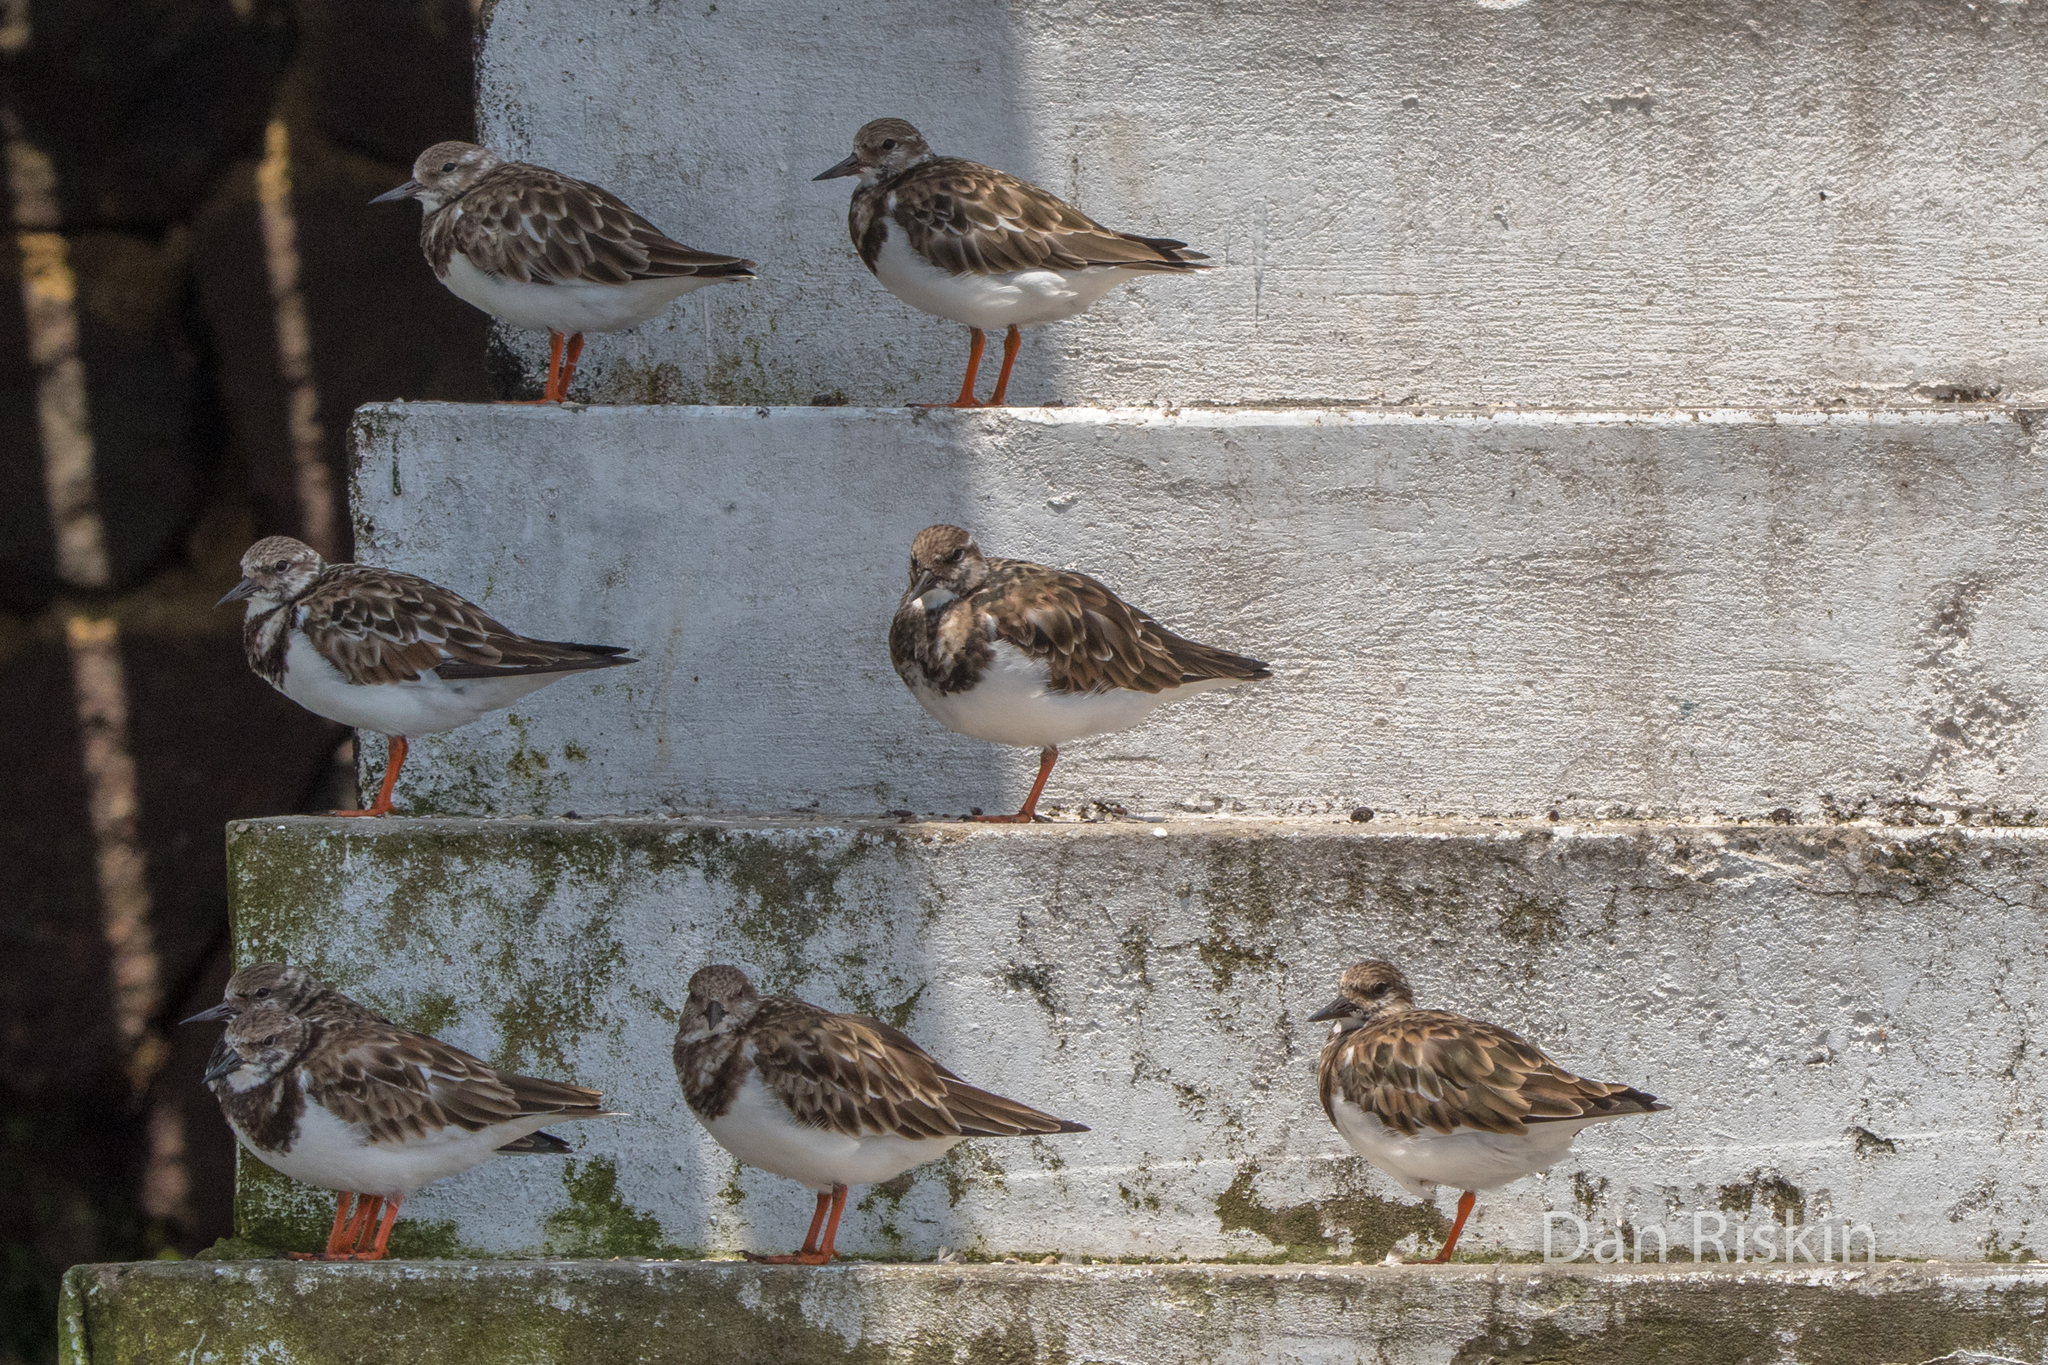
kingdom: Animalia
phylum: Chordata
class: Aves
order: Charadriiformes
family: Scolopacidae
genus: Arenaria
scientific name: Arenaria interpres
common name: Ruddy turnstone
